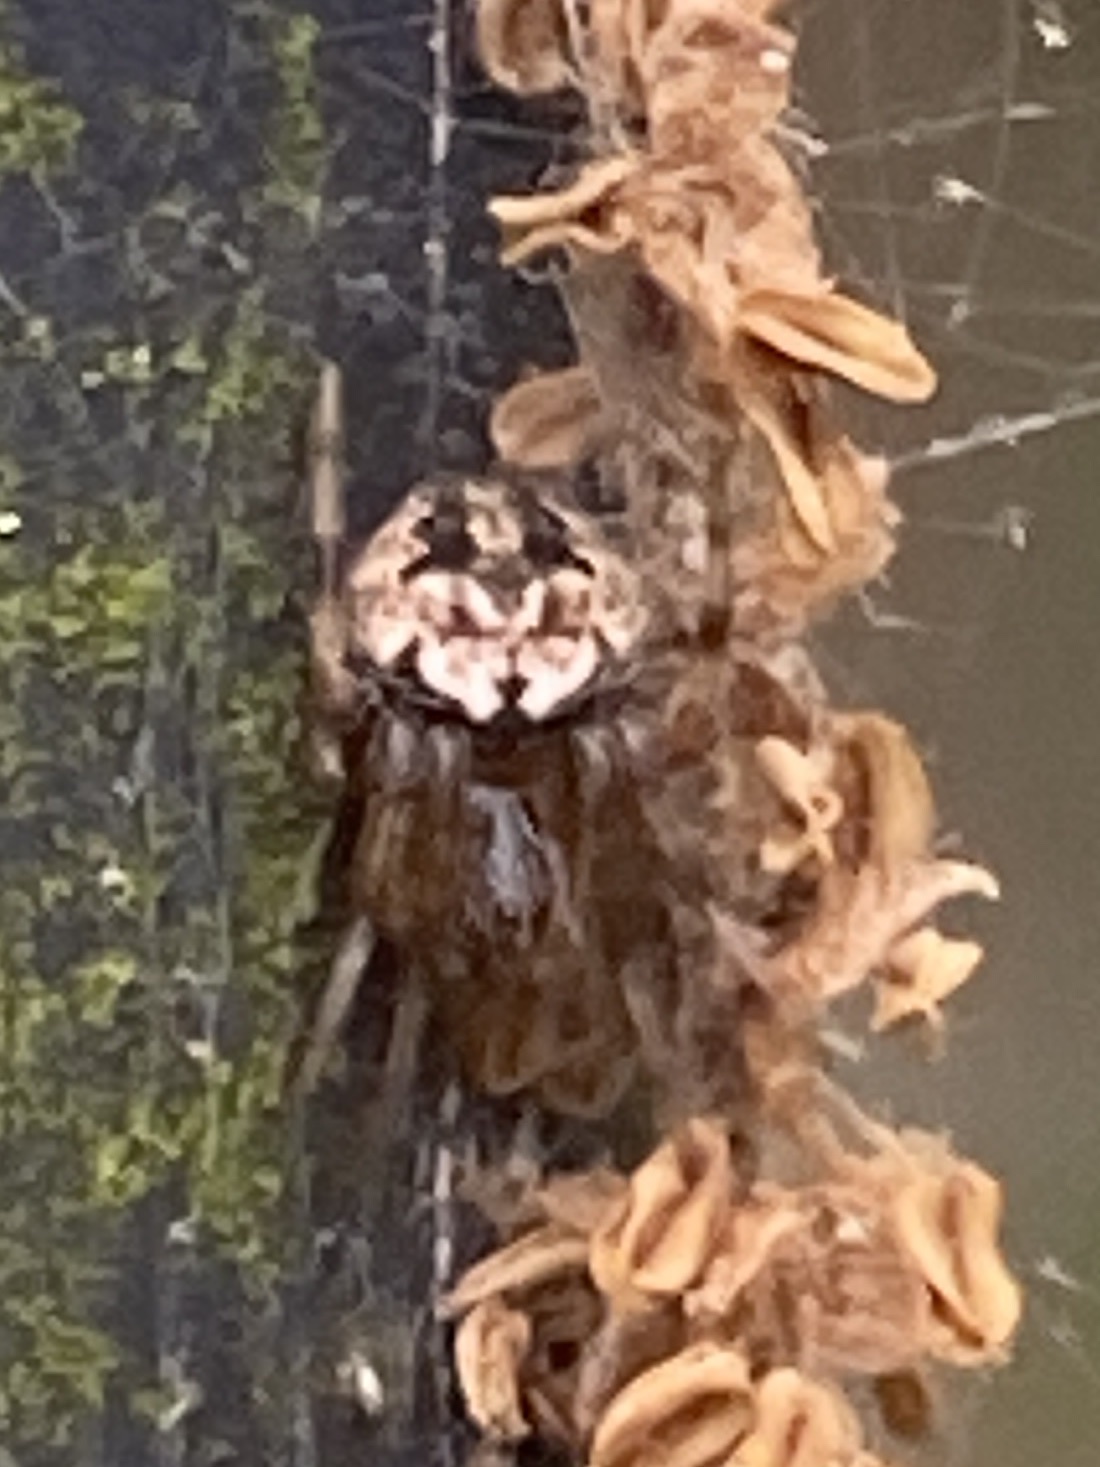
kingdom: Animalia
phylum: Arthropoda
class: Arachnida
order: Araneae
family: Araneidae
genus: Neoscona
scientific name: Neoscona arabesca
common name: Orb weavers
